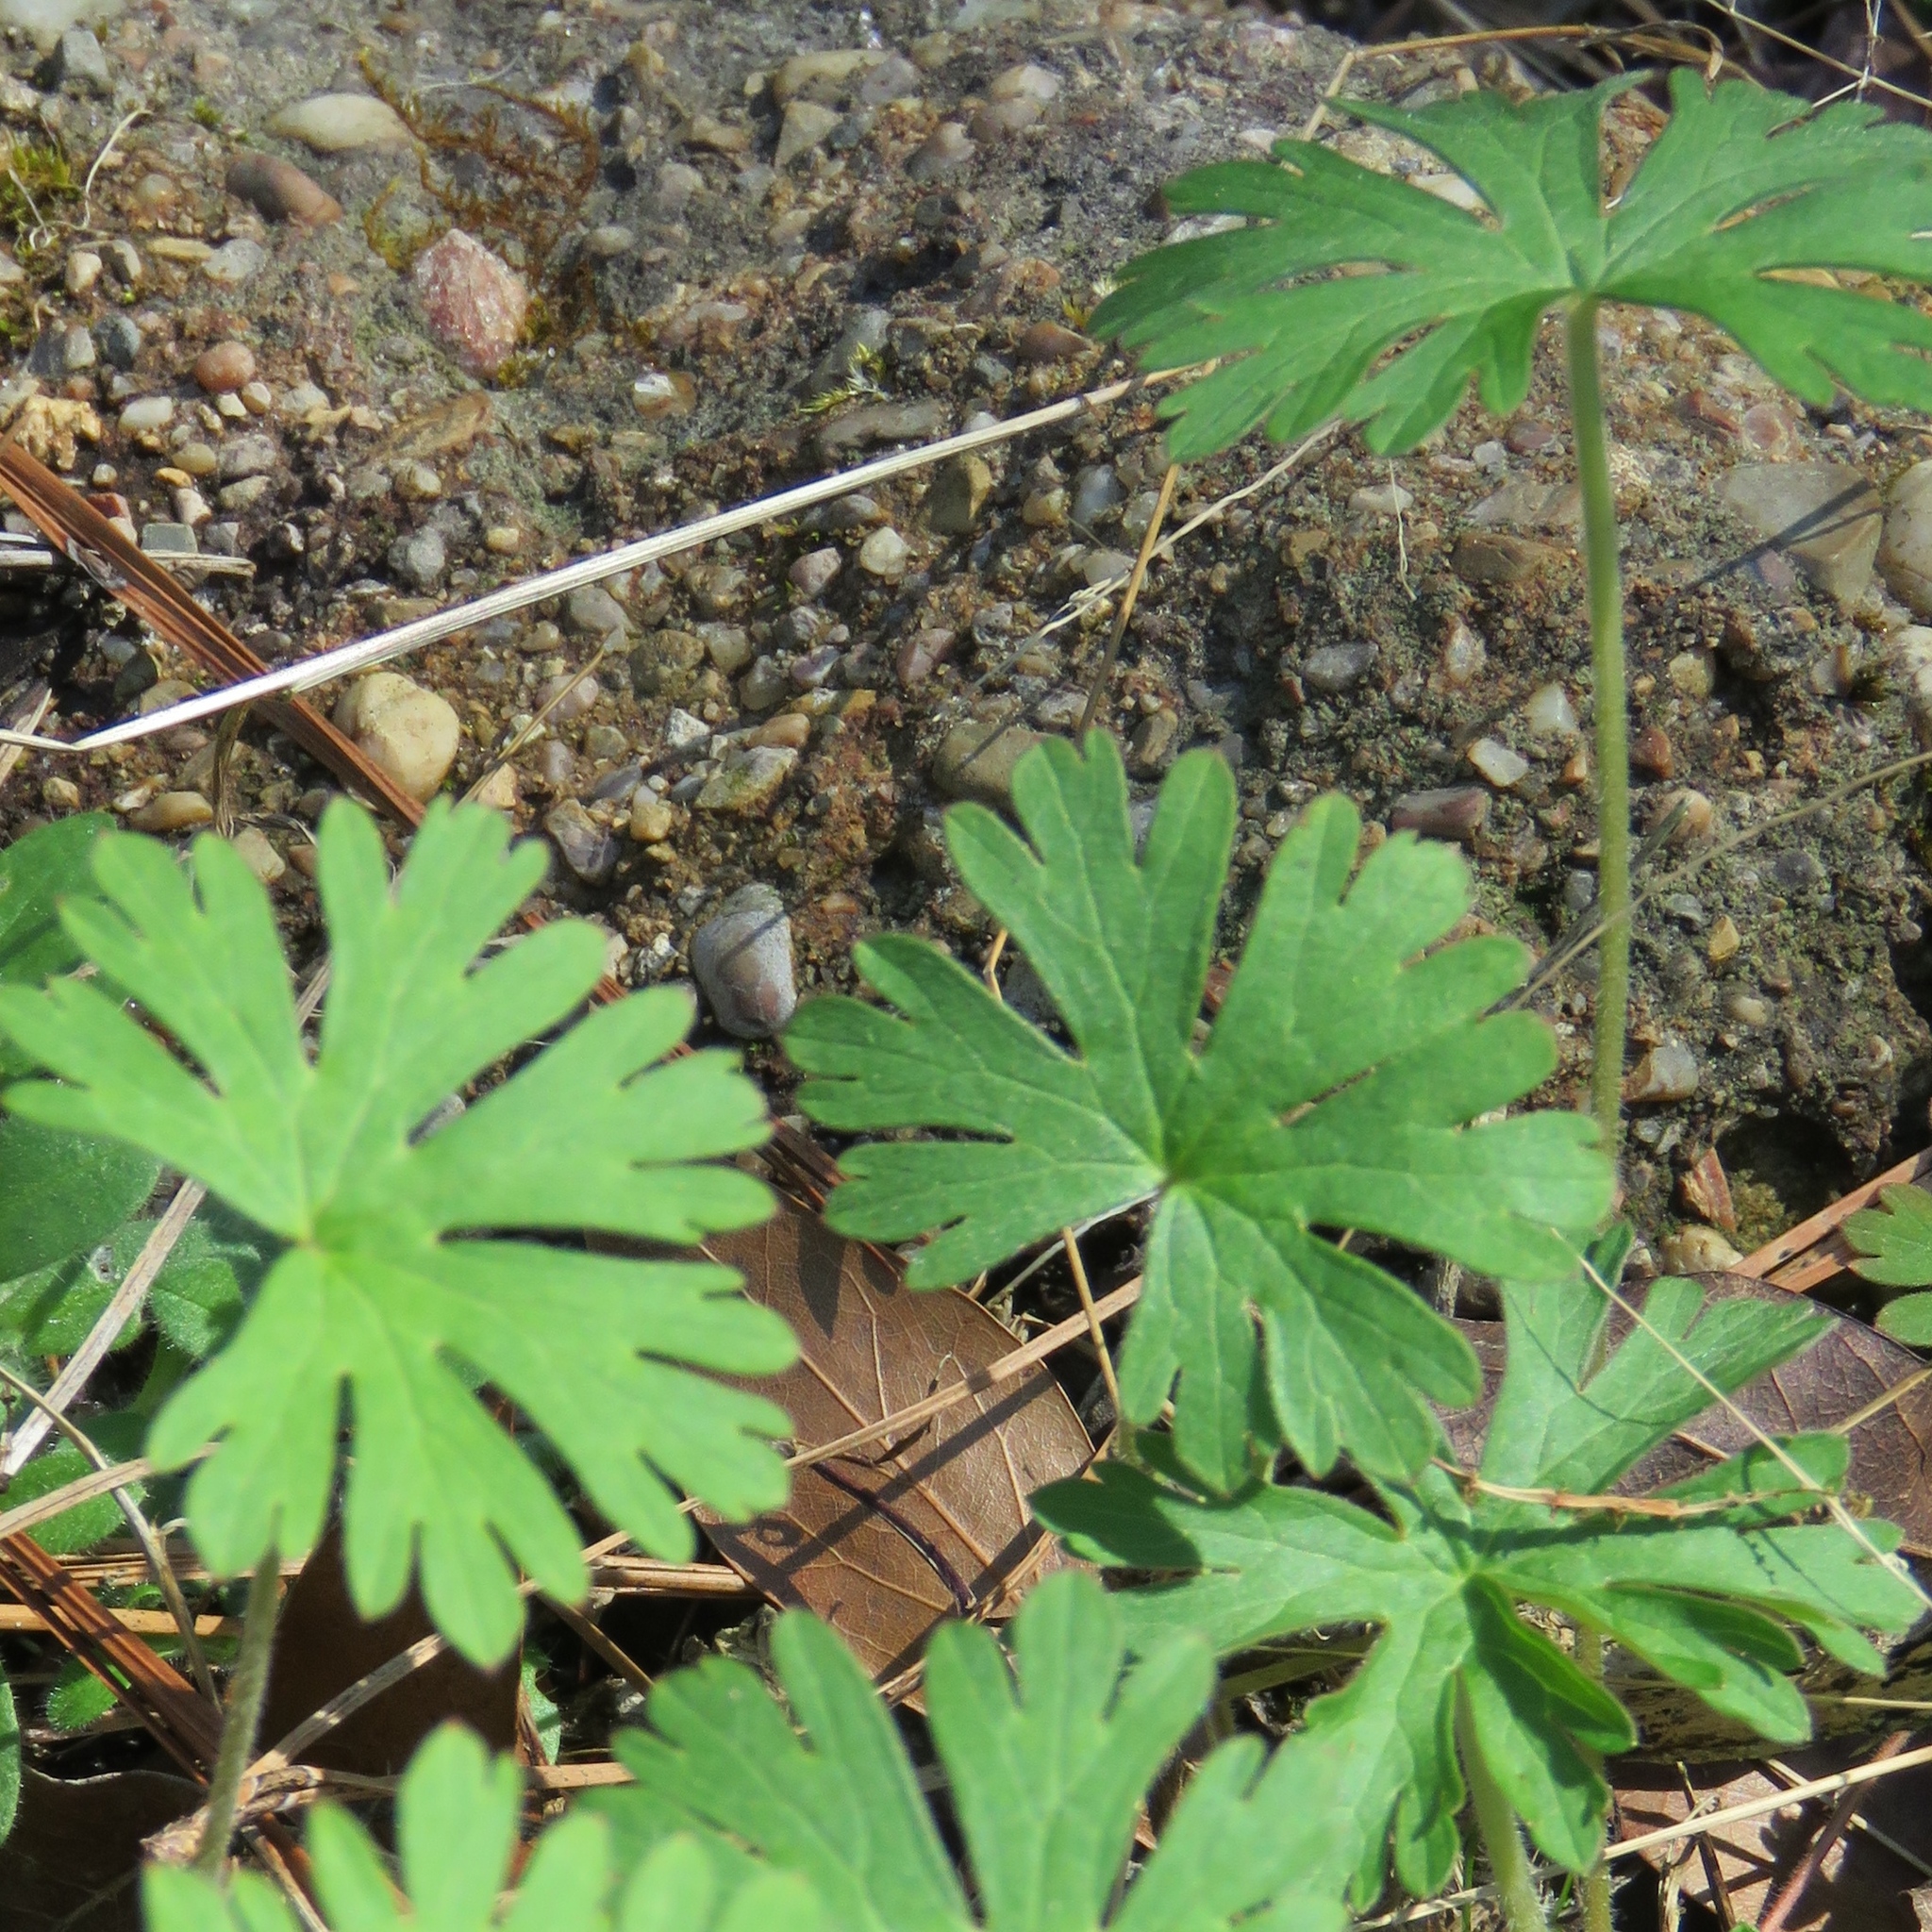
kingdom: Plantae
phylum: Tracheophyta
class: Magnoliopsida
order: Geraniales
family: Geraniaceae
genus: Geranium
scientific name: Geranium carolinianum
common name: Carolina crane's-bill
